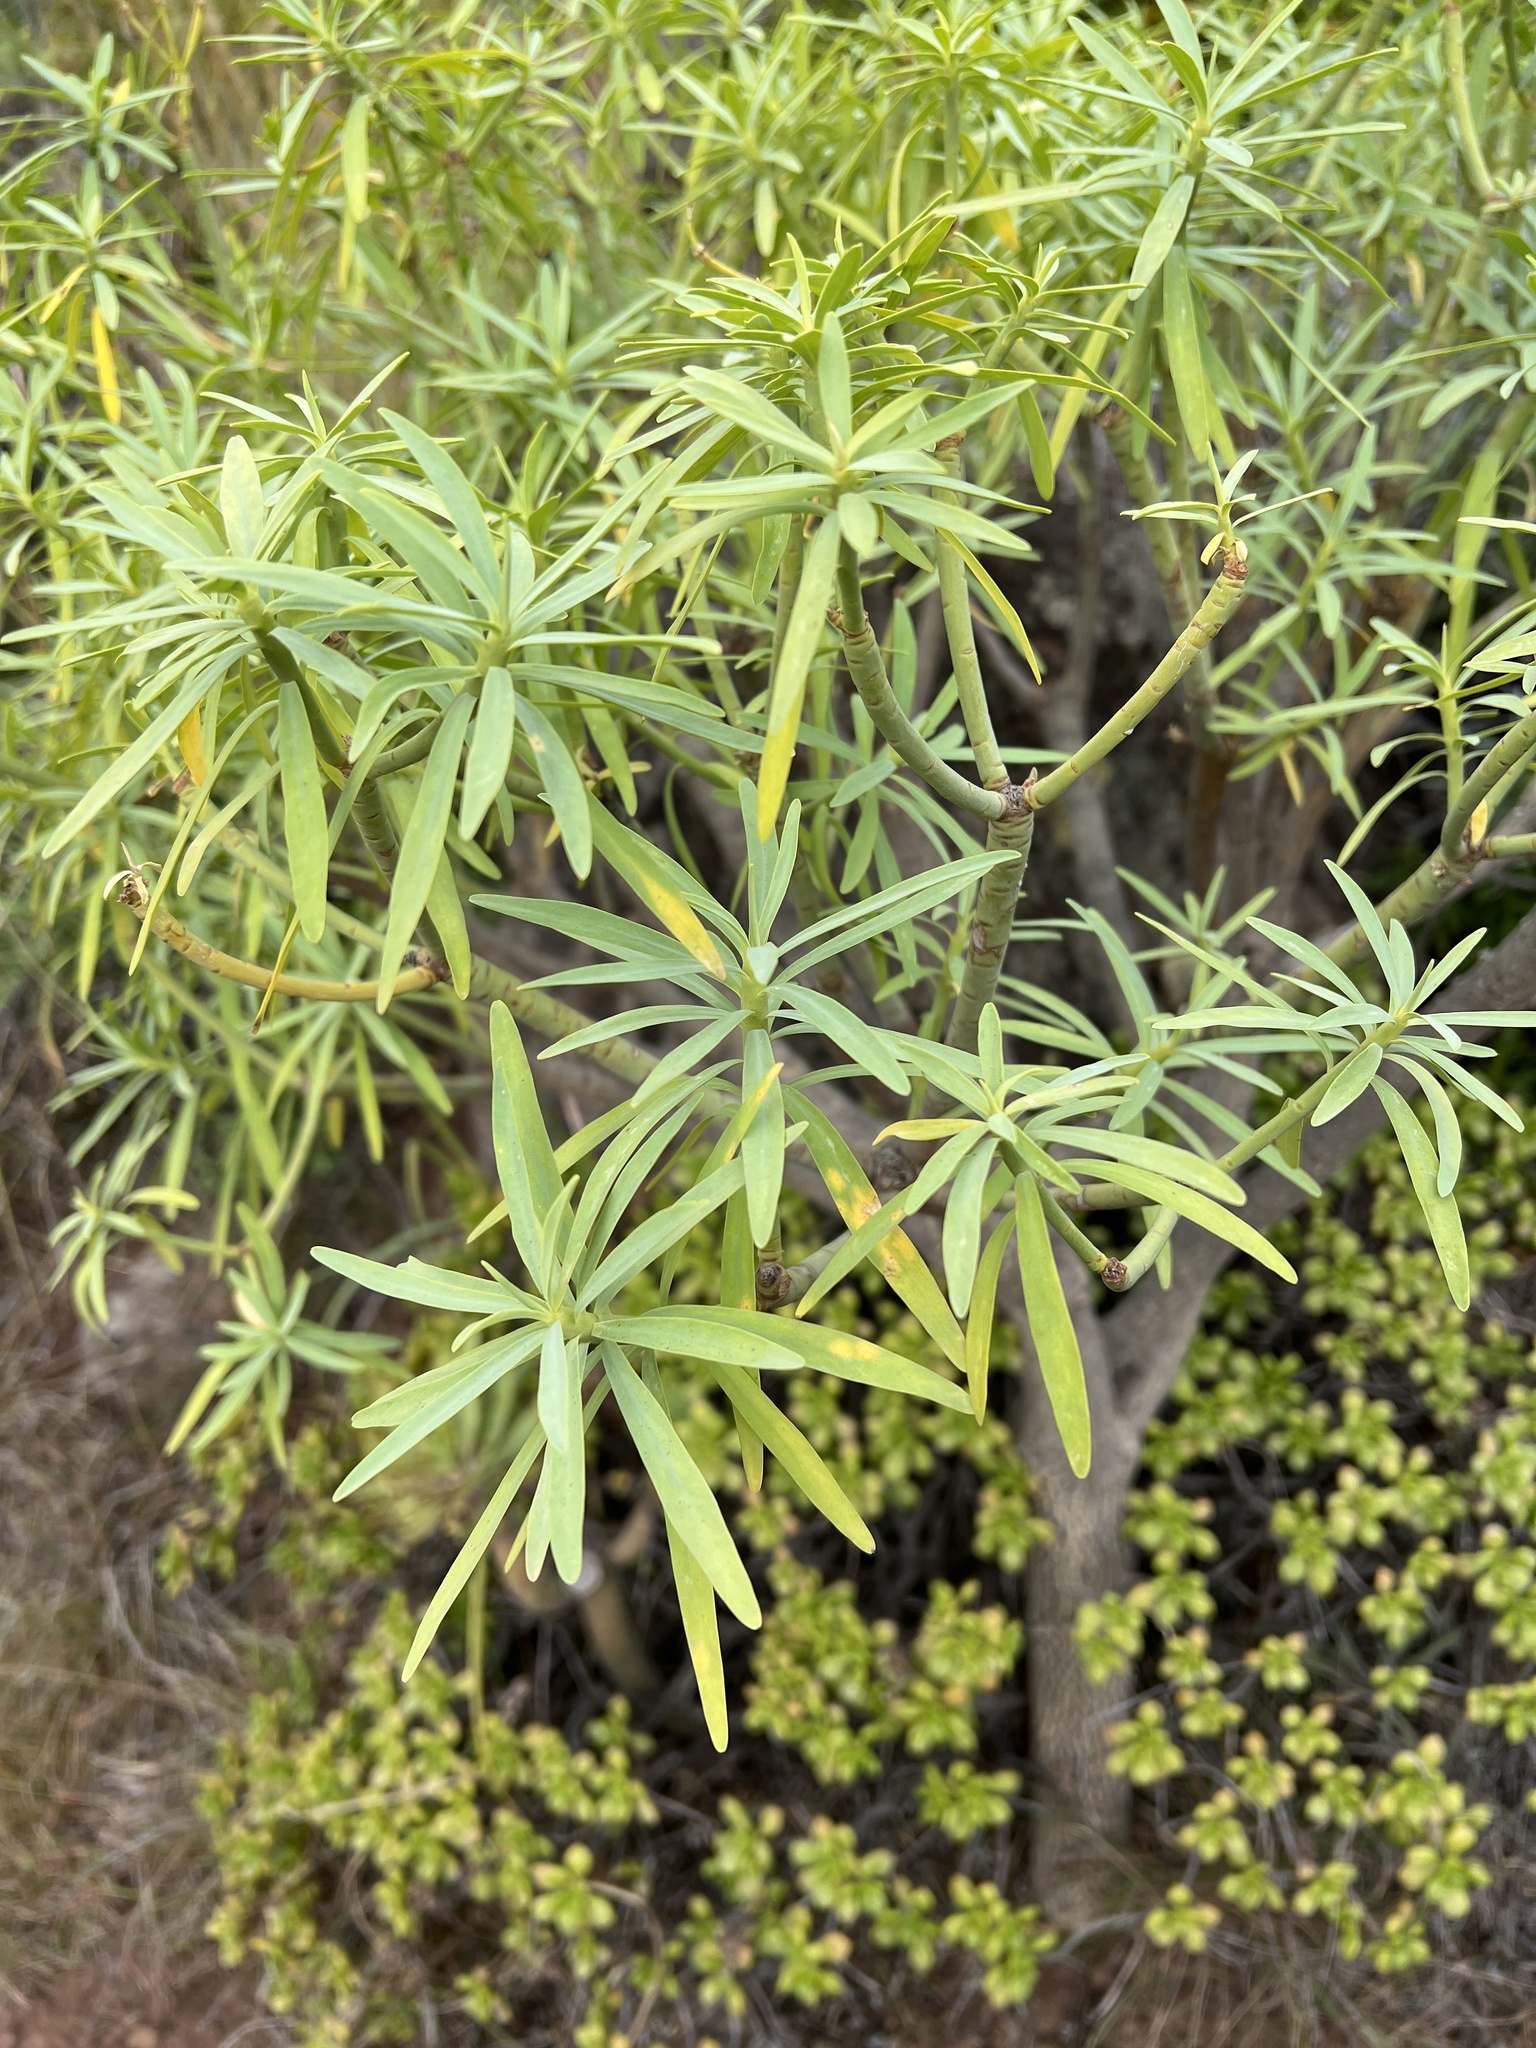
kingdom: Plantae
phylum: Tracheophyta
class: Magnoliopsida
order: Malpighiales
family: Euphorbiaceae
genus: Euphorbia
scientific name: Euphorbia lamarckii
